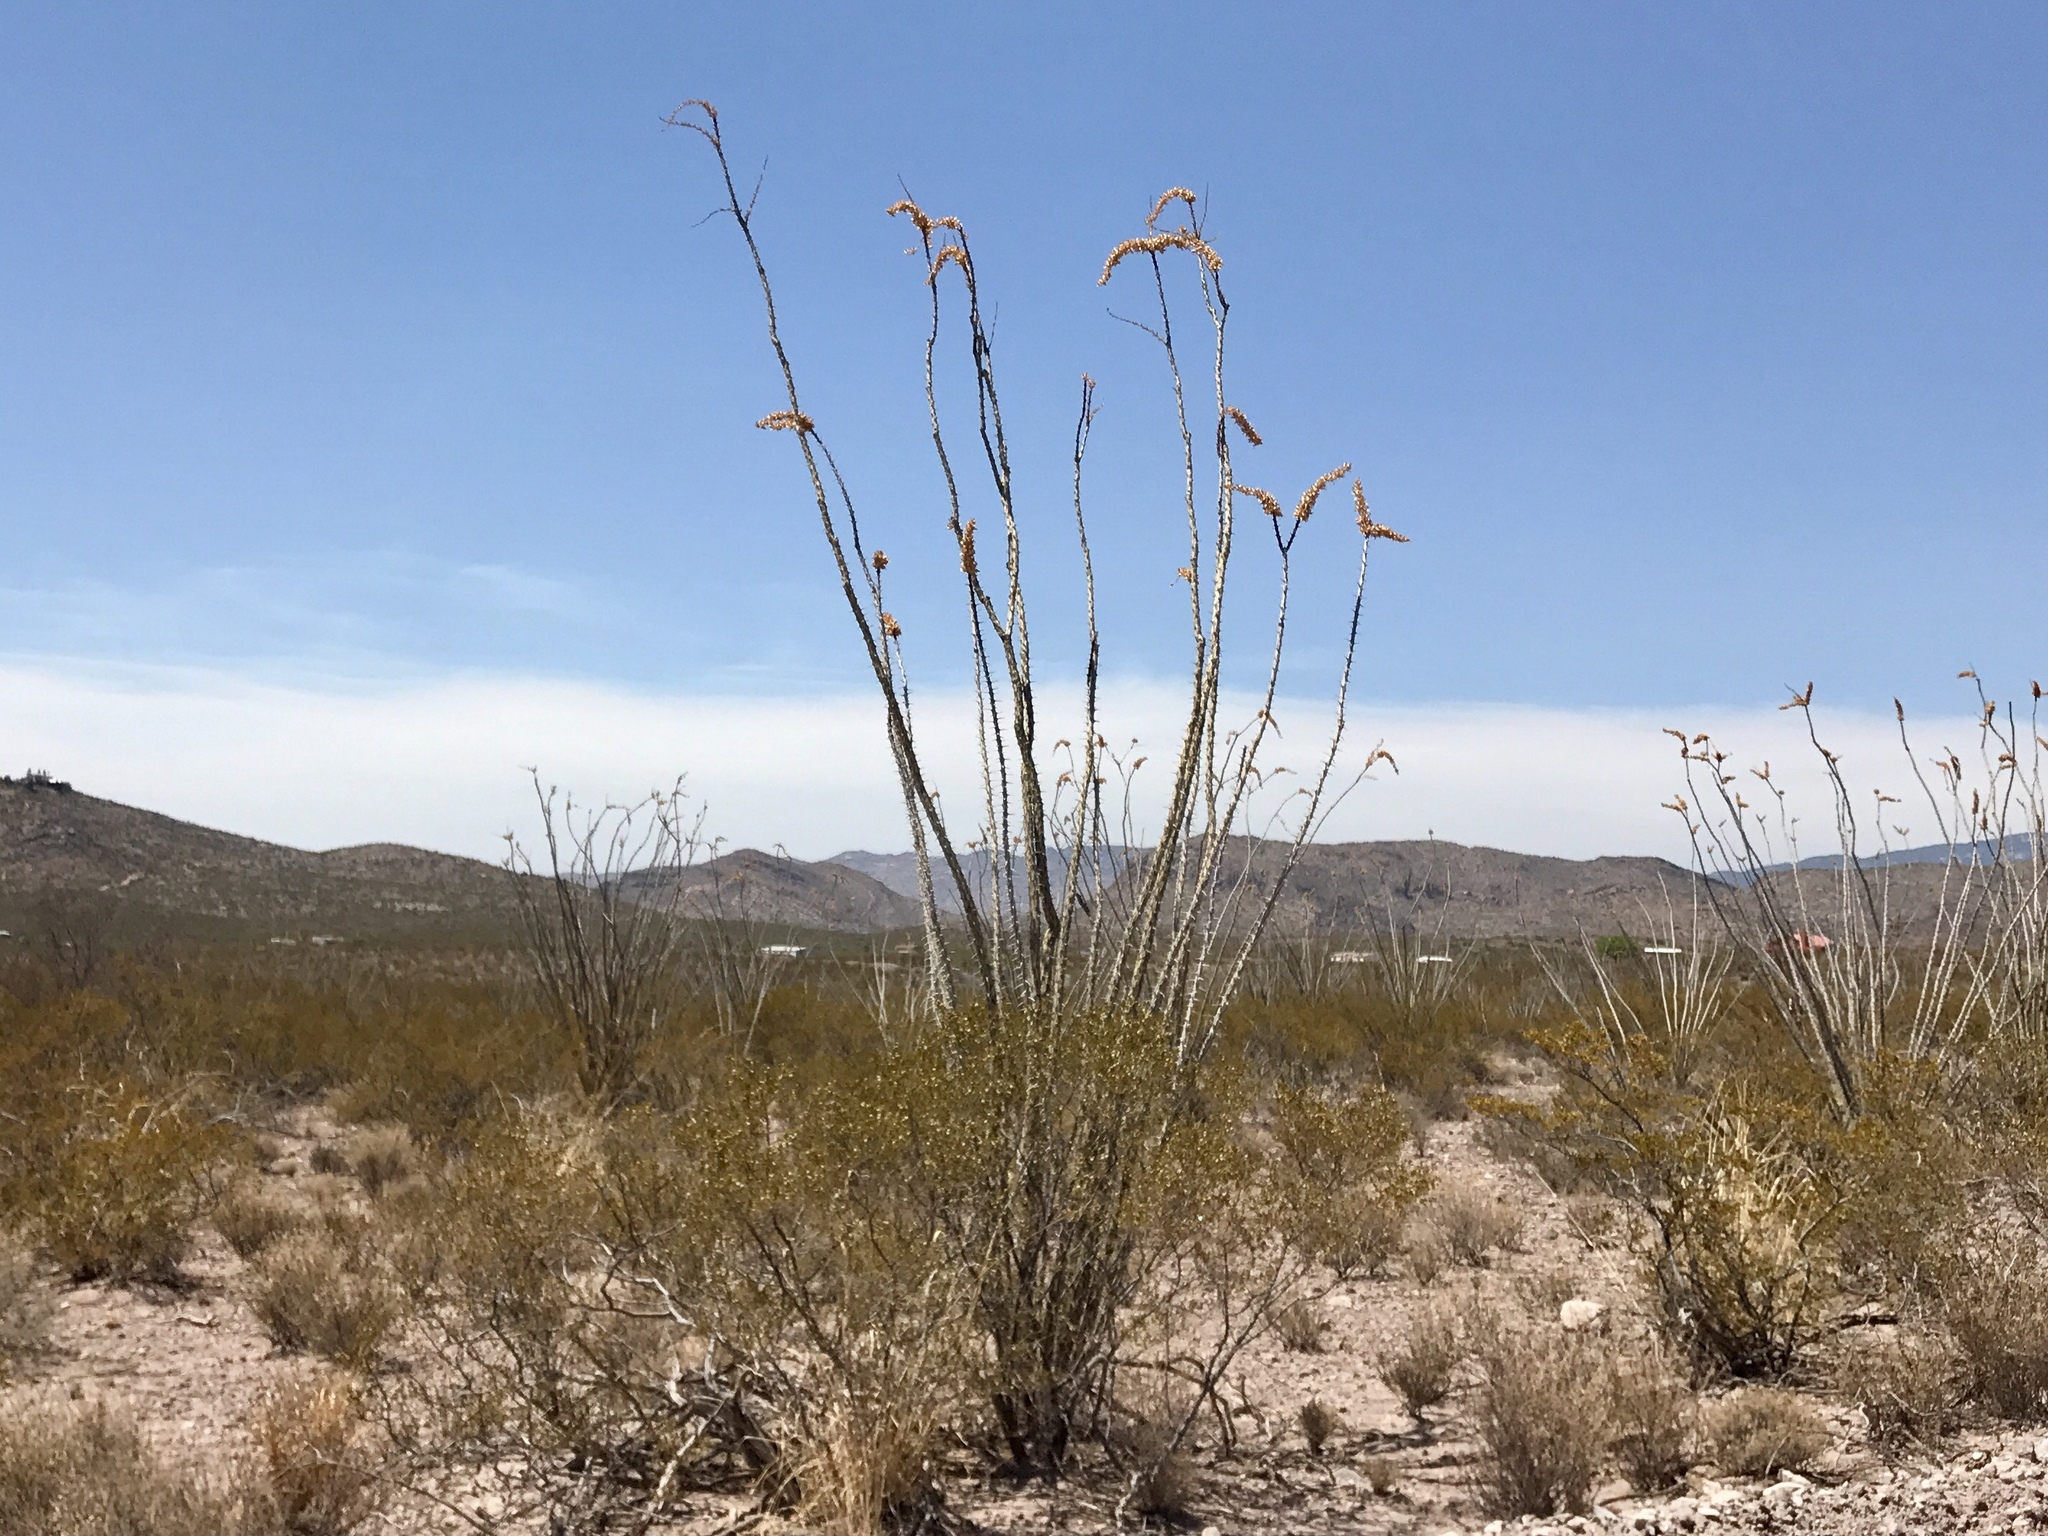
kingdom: Plantae
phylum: Tracheophyta
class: Magnoliopsida
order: Ericales
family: Fouquieriaceae
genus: Fouquieria
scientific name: Fouquieria splendens
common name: Vine-cactus
